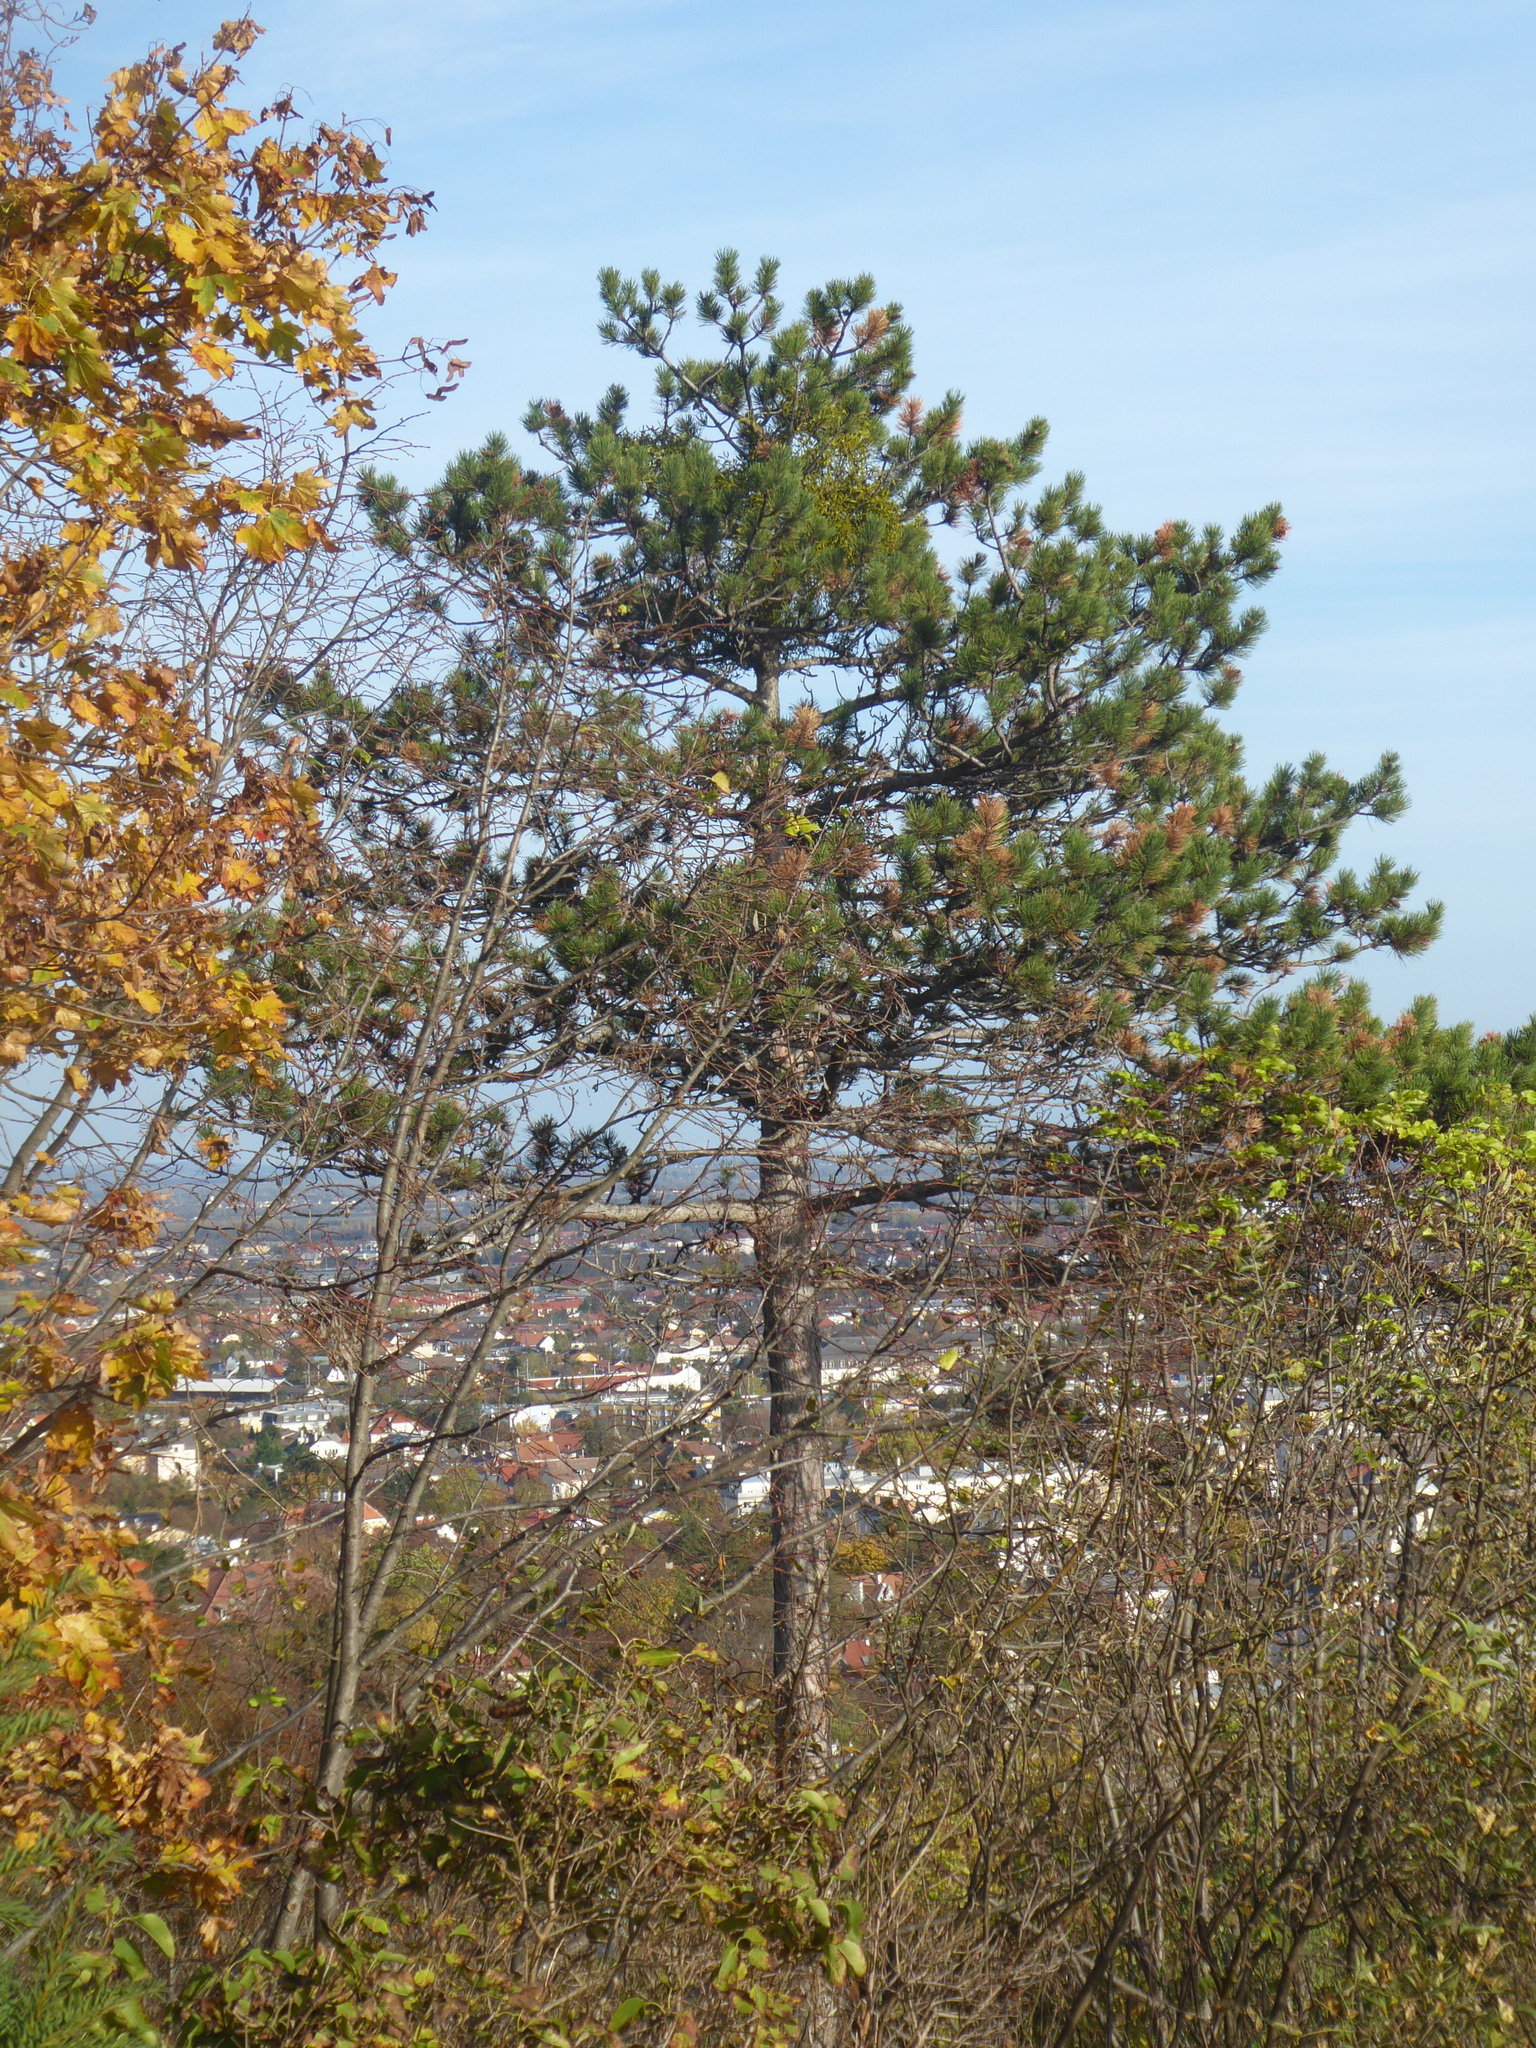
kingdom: Plantae
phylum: Tracheophyta
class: Pinopsida
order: Pinales
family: Pinaceae
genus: Pinus
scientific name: Pinus nigra
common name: Austrian pine
